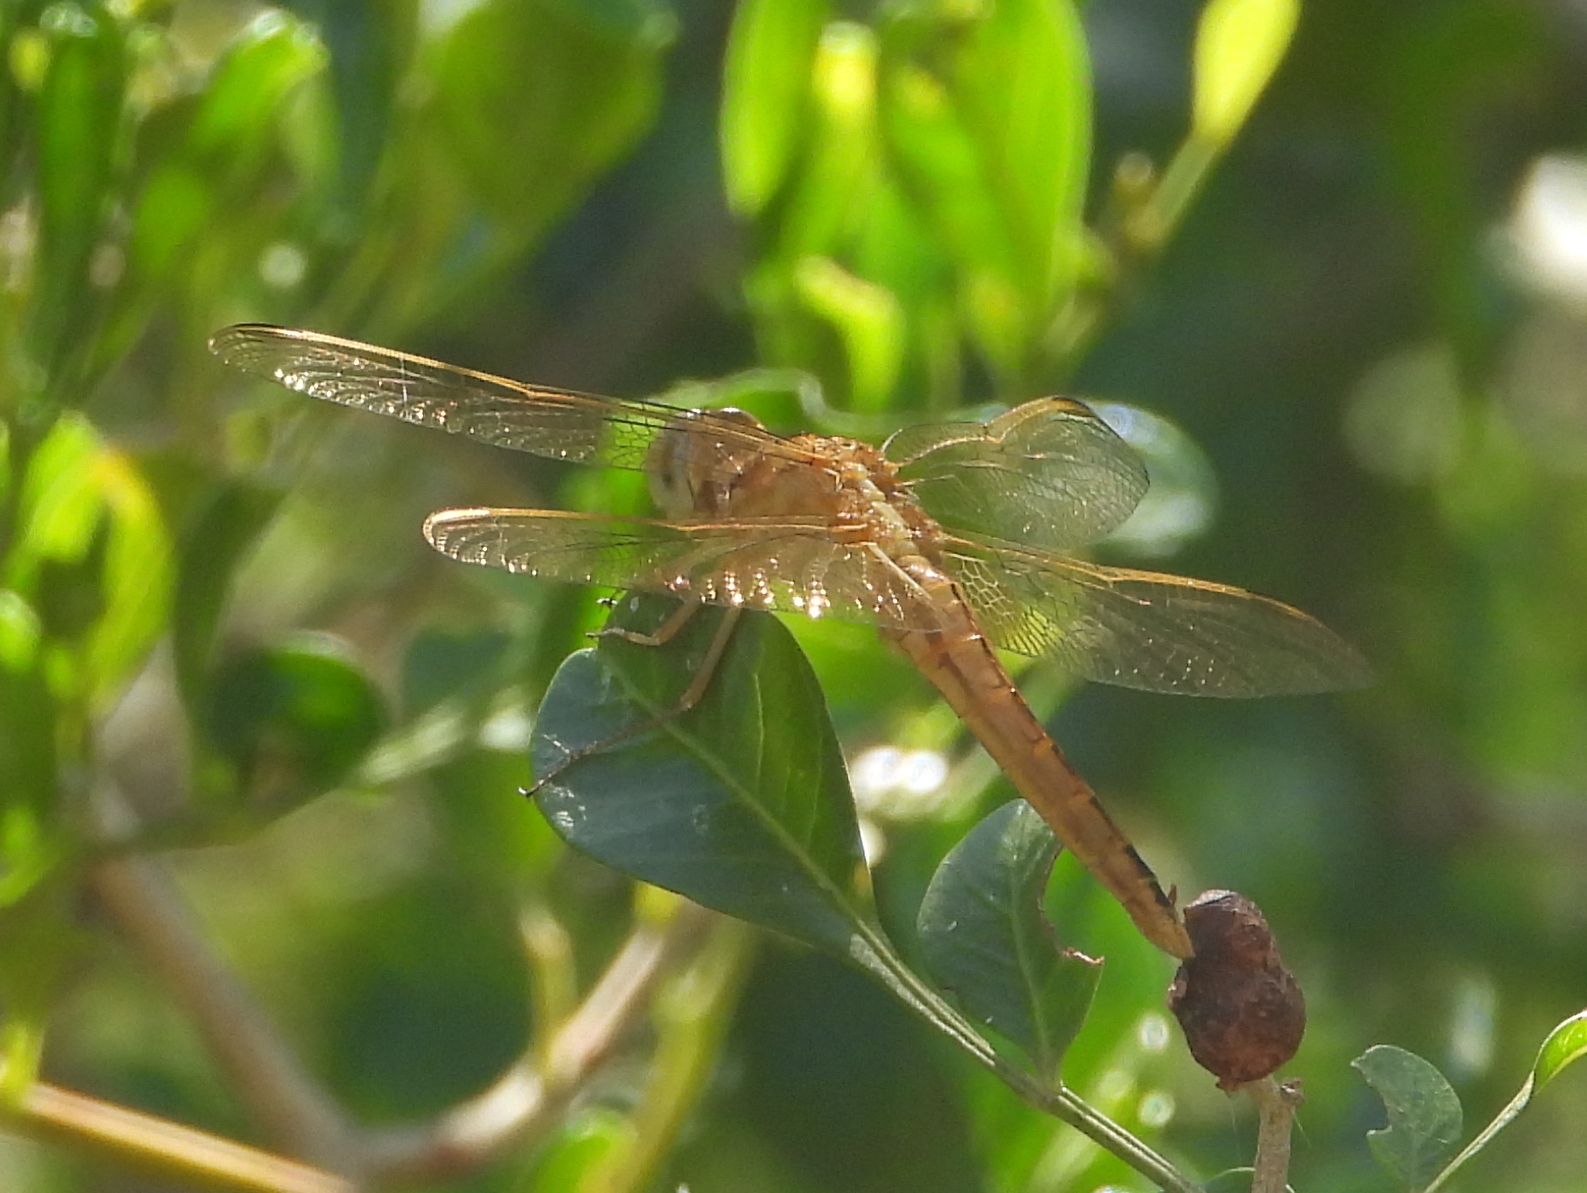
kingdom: Animalia
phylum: Arthropoda
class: Insecta
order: Odonata
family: Libellulidae
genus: Crocothemis
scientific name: Crocothemis erythraea
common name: Scarlet dragonfly
